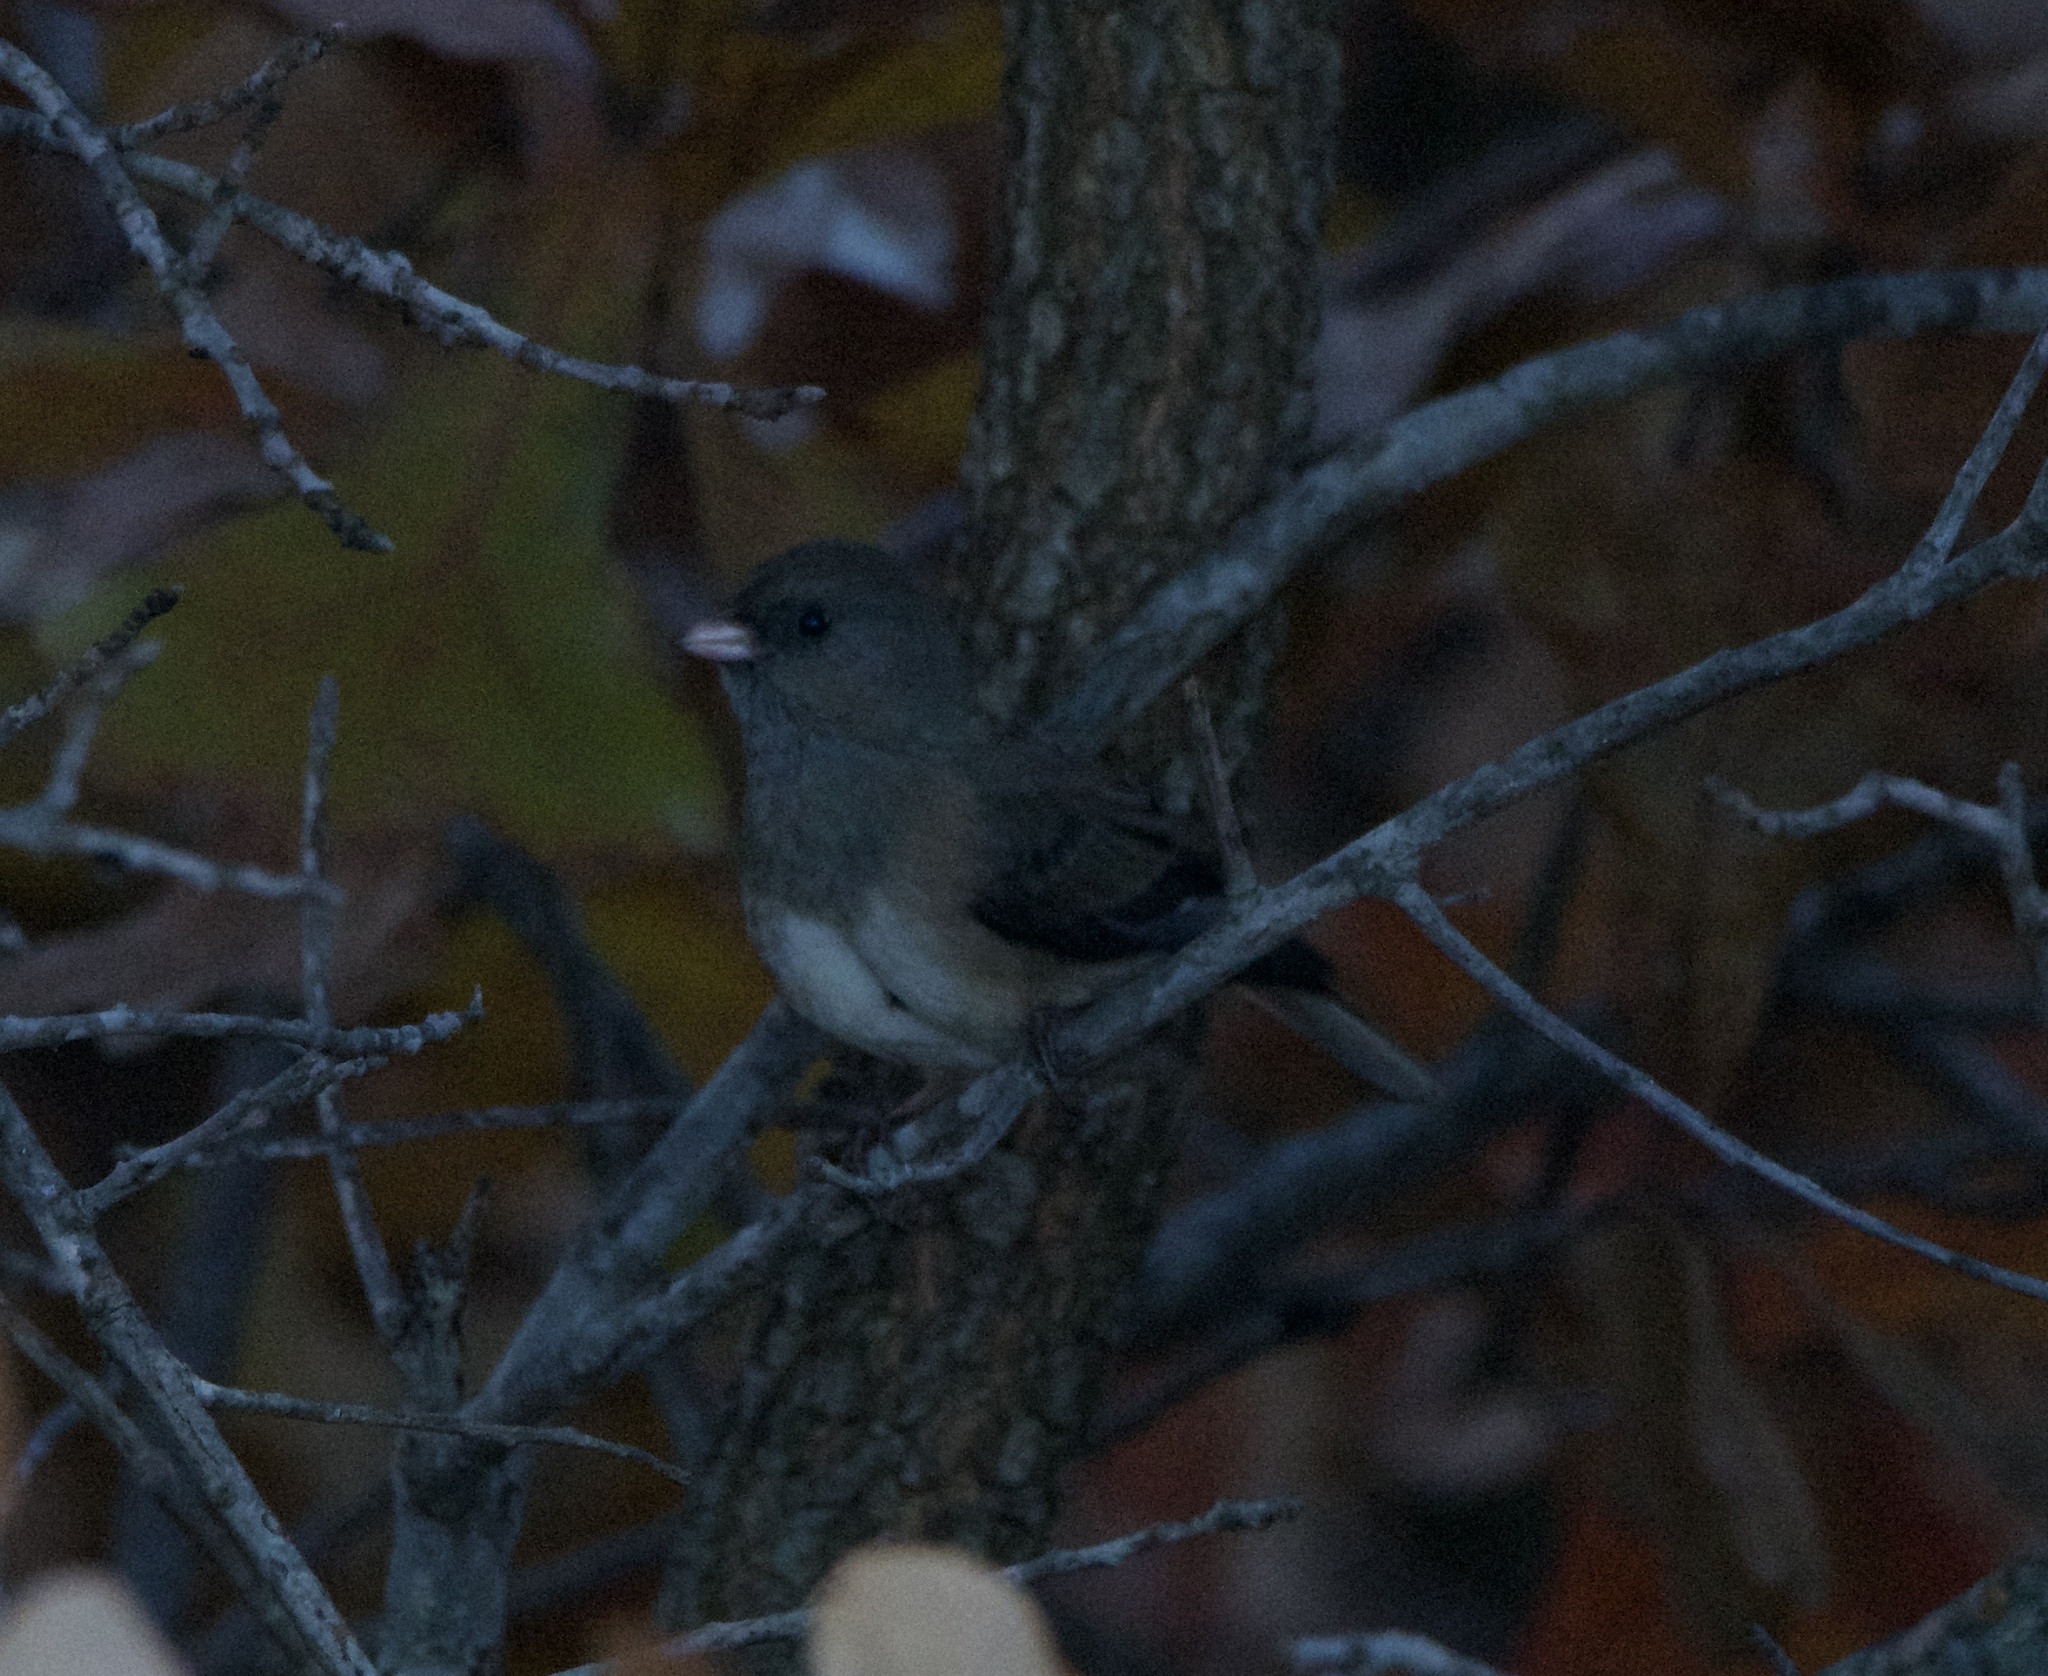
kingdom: Animalia
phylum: Chordata
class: Aves
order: Passeriformes
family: Passerellidae
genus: Junco
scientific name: Junco hyemalis
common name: Dark-eyed junco
